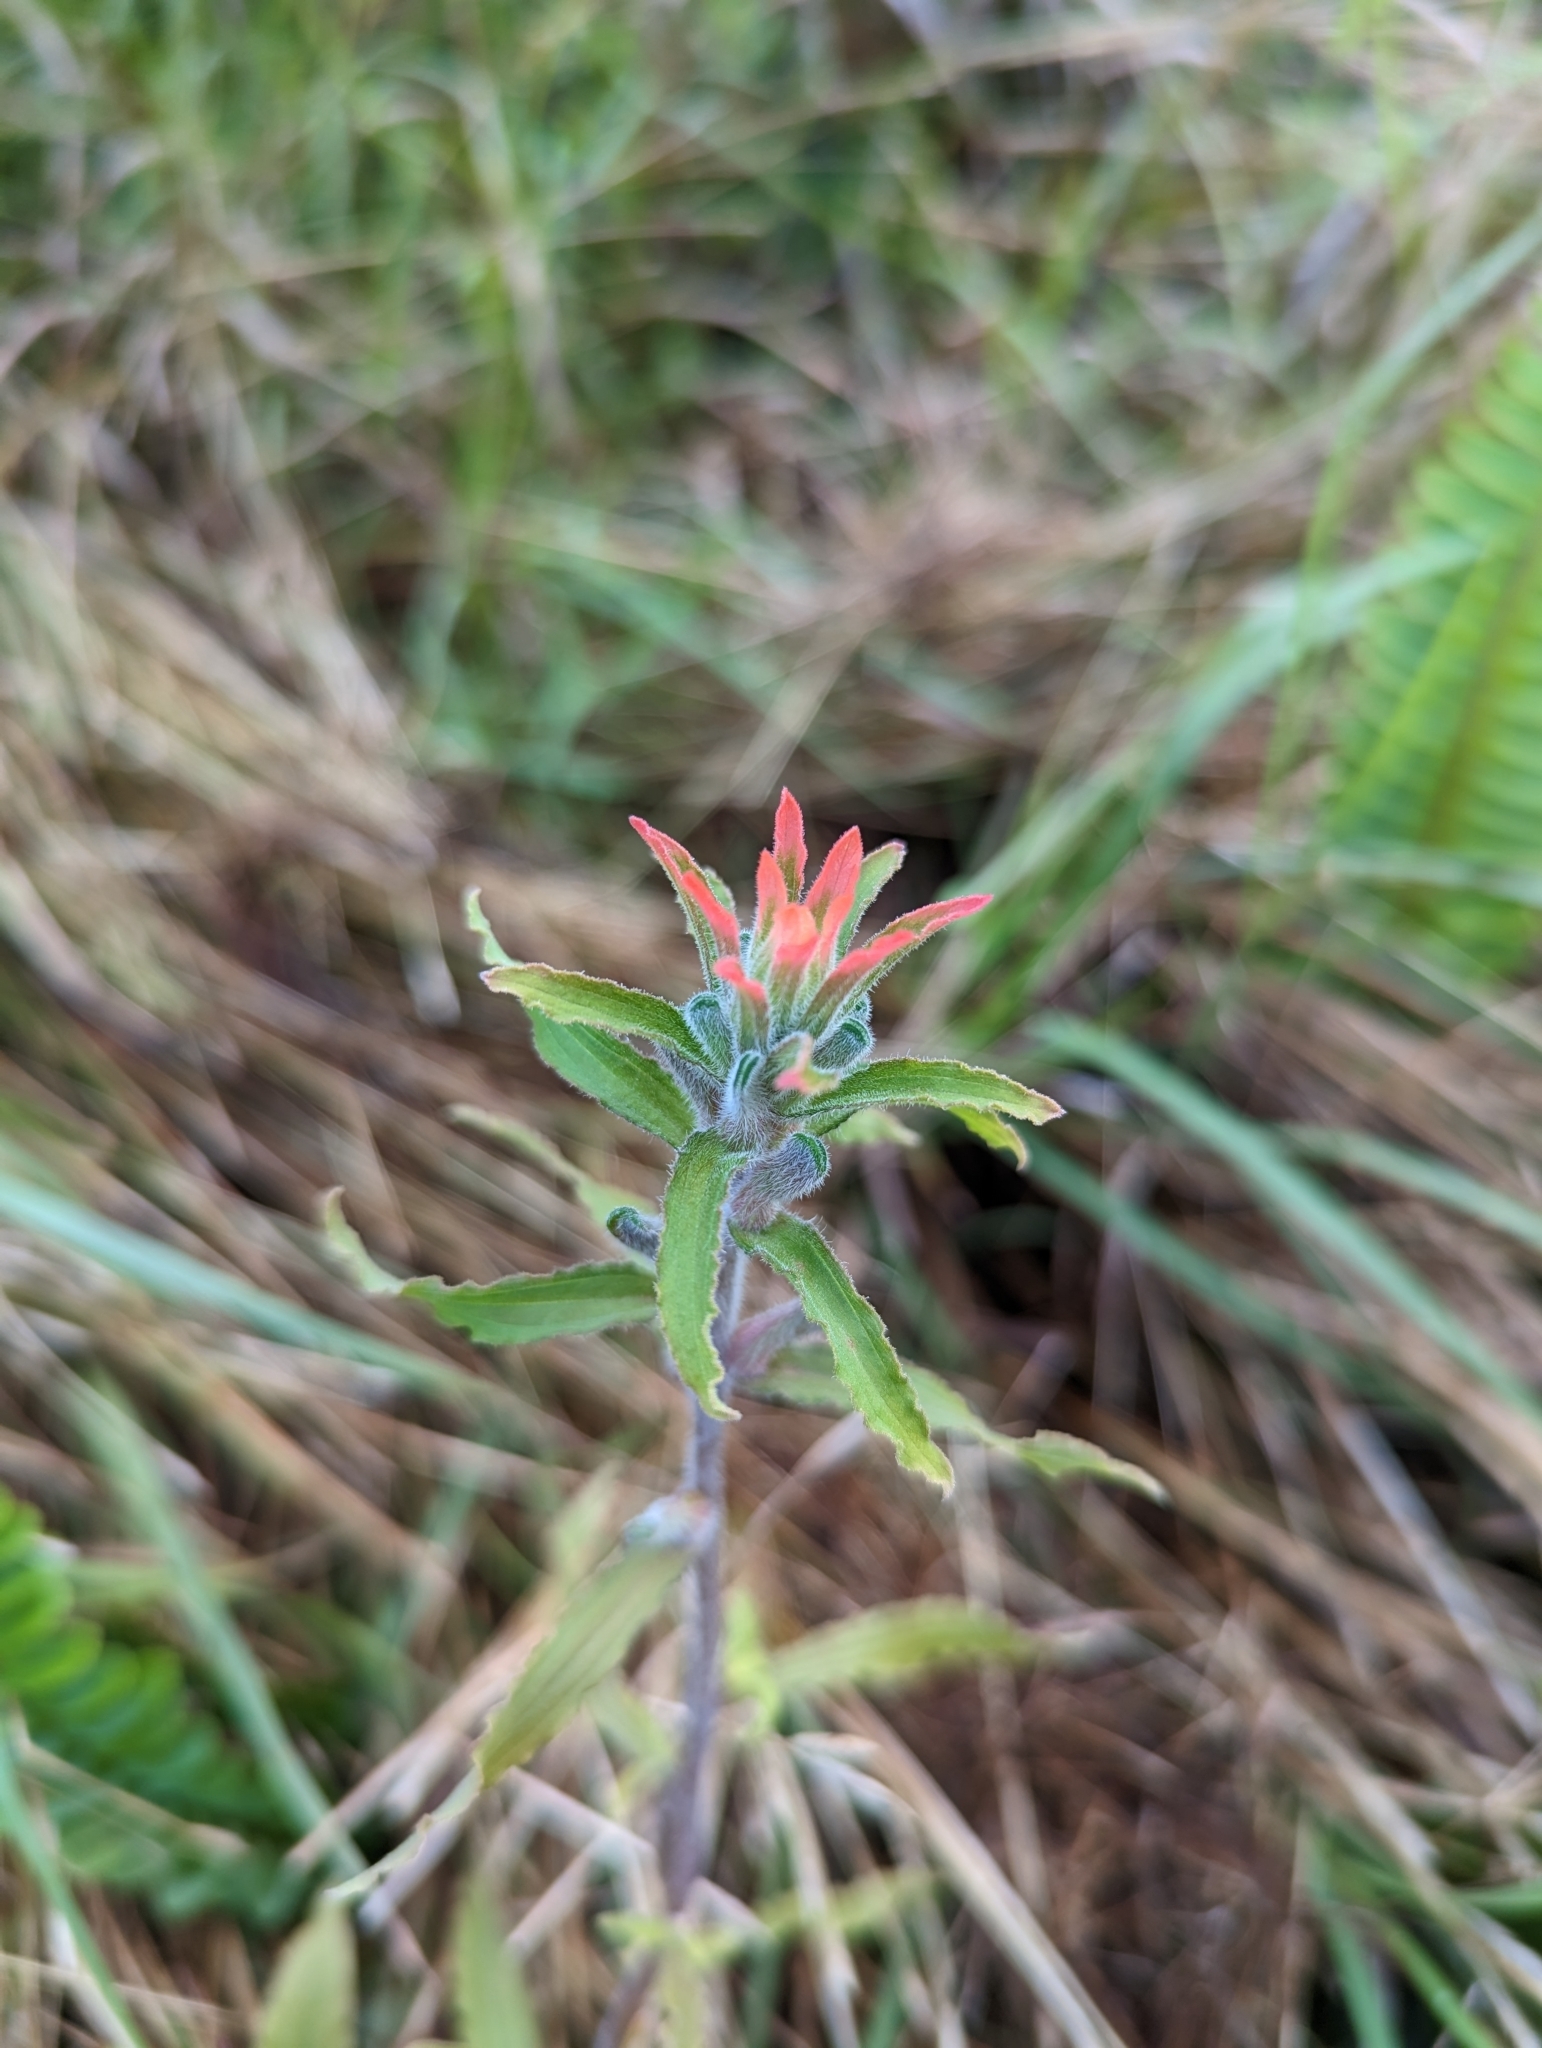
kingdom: Plantae
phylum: Tracheophyta
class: Magnoliopsida
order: Lamiales
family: Orobanchaceae
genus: Castilleja
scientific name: Castilleja arvensis
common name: Indian paintbrush
